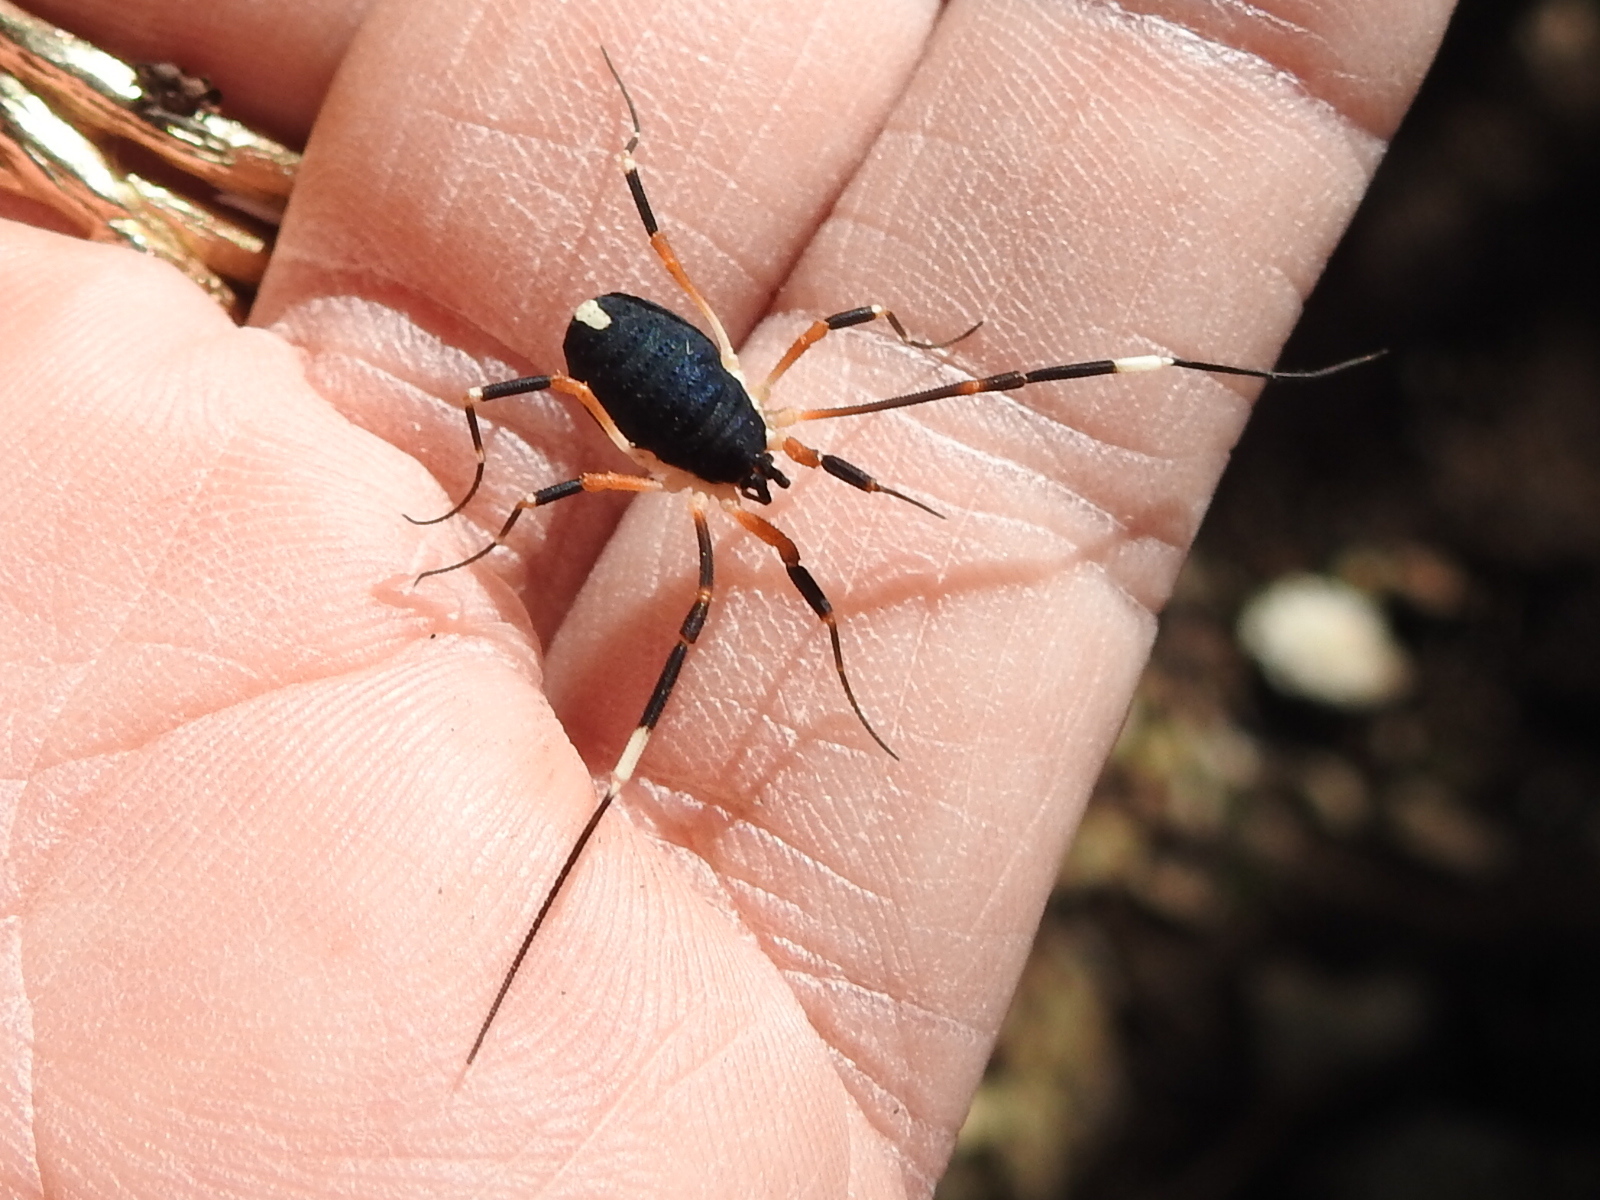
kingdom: Animalia
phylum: Arthropoda
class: Arachnida
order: Opiliones
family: Globipedidae
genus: Dalquestia
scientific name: Dalquestia formosa
